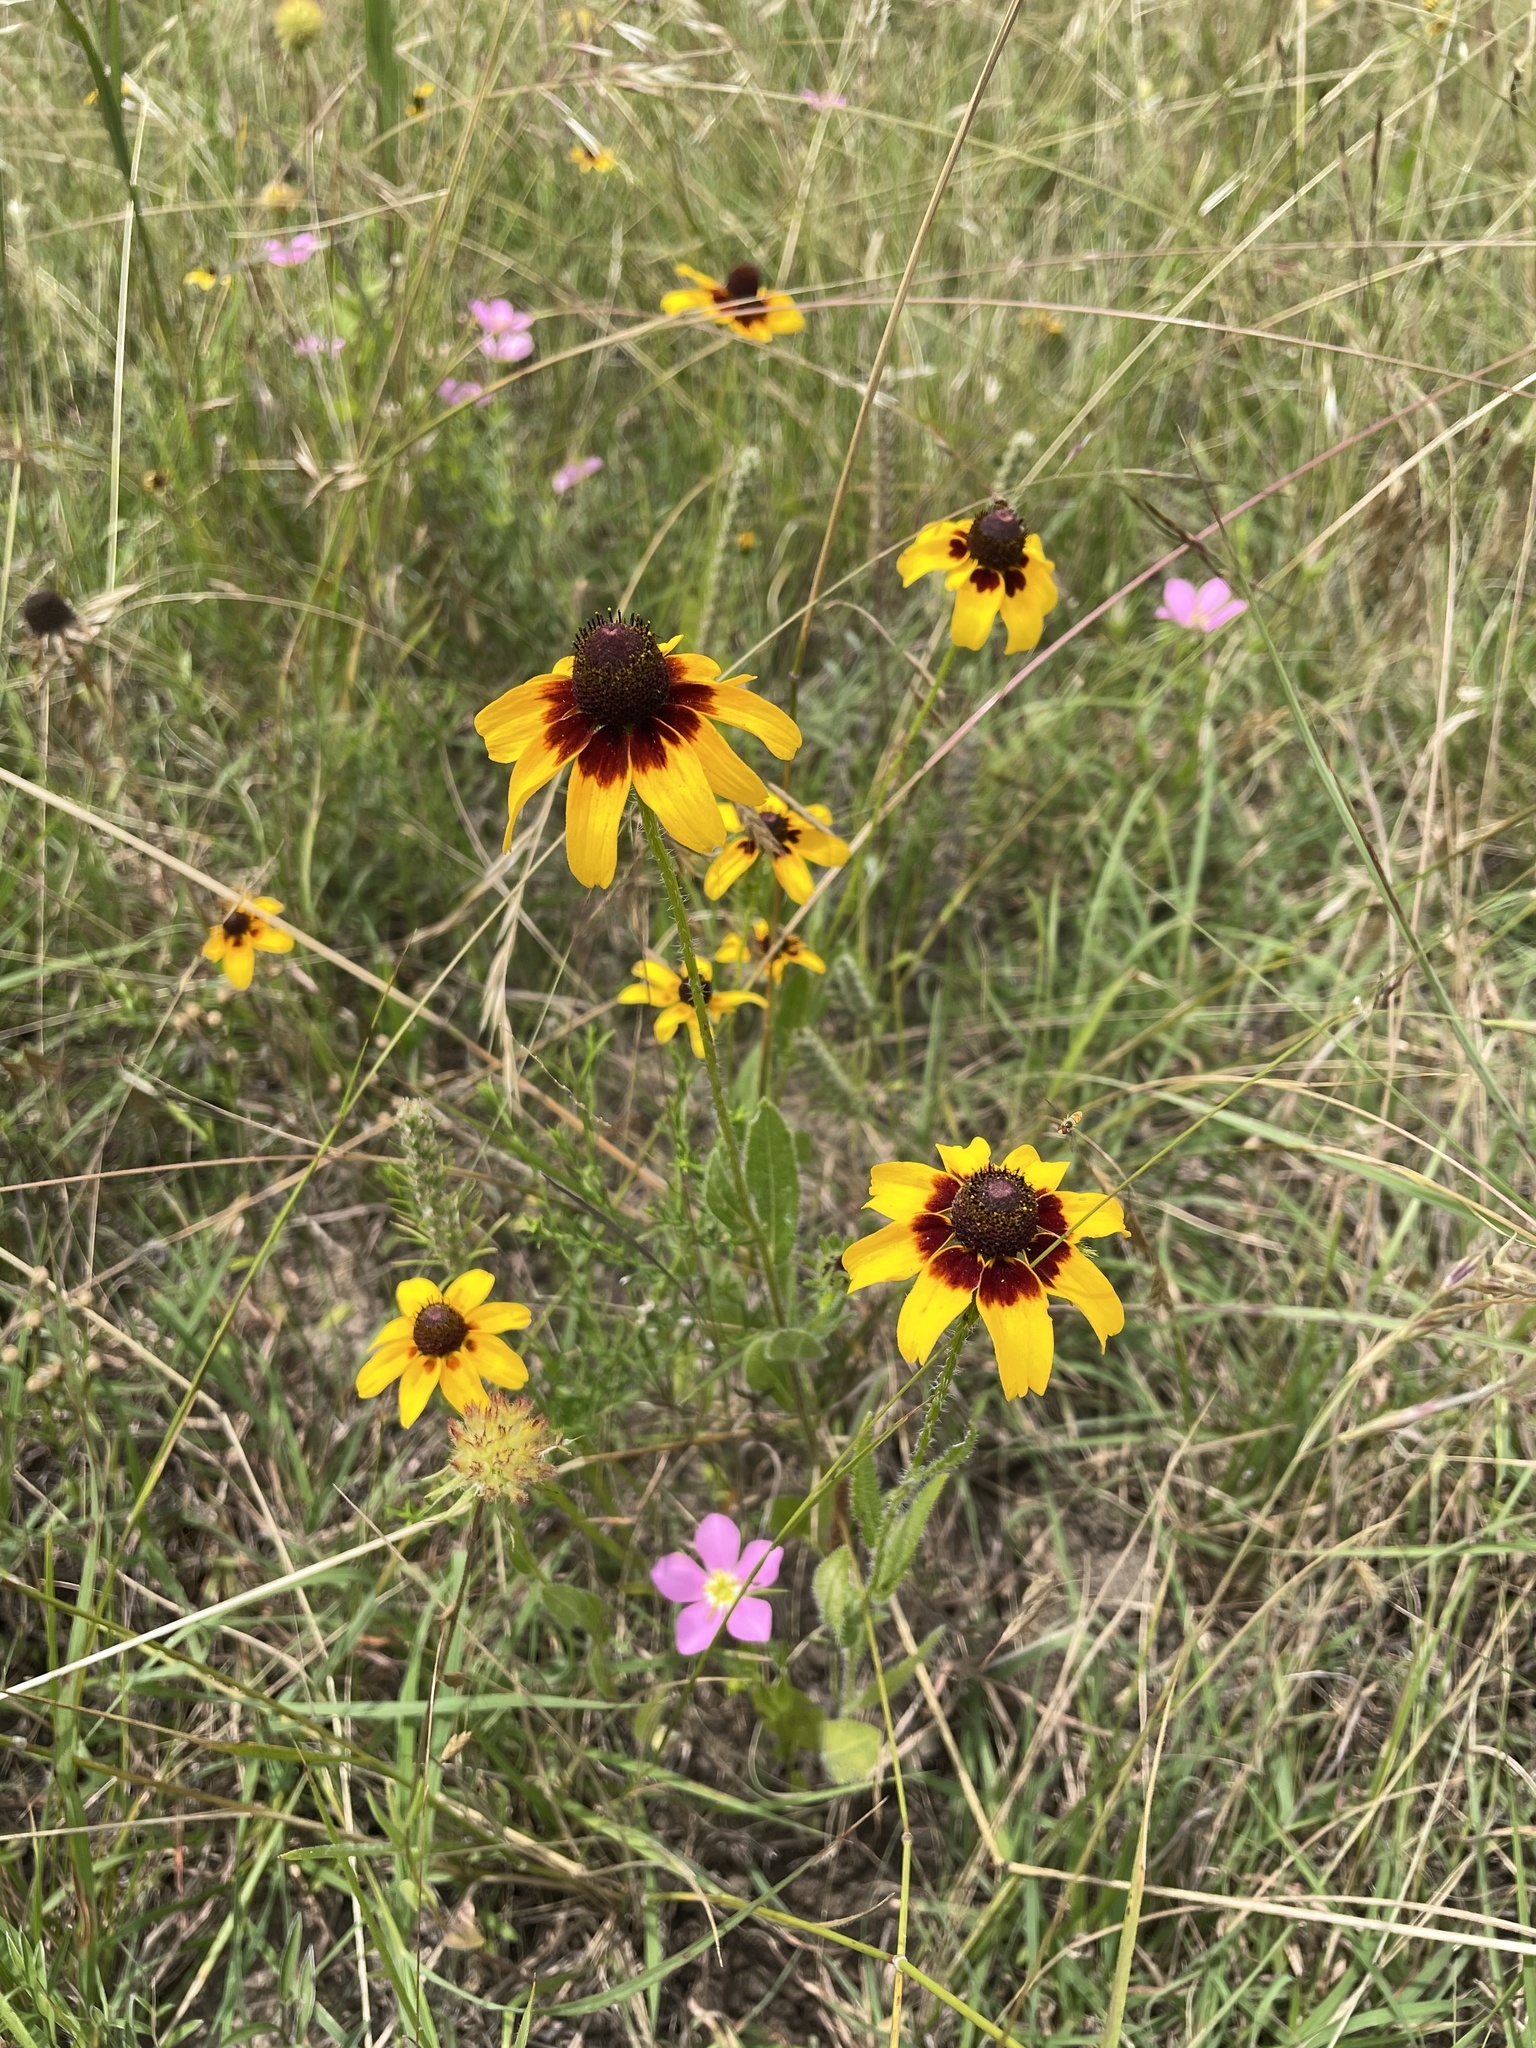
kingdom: Plantae
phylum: Tracheophyta
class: Magnoliopsida
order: Asterales
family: Asteraceae
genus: Rudbeckia
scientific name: Rudbeckia hirta
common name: Black-eyed-susan
